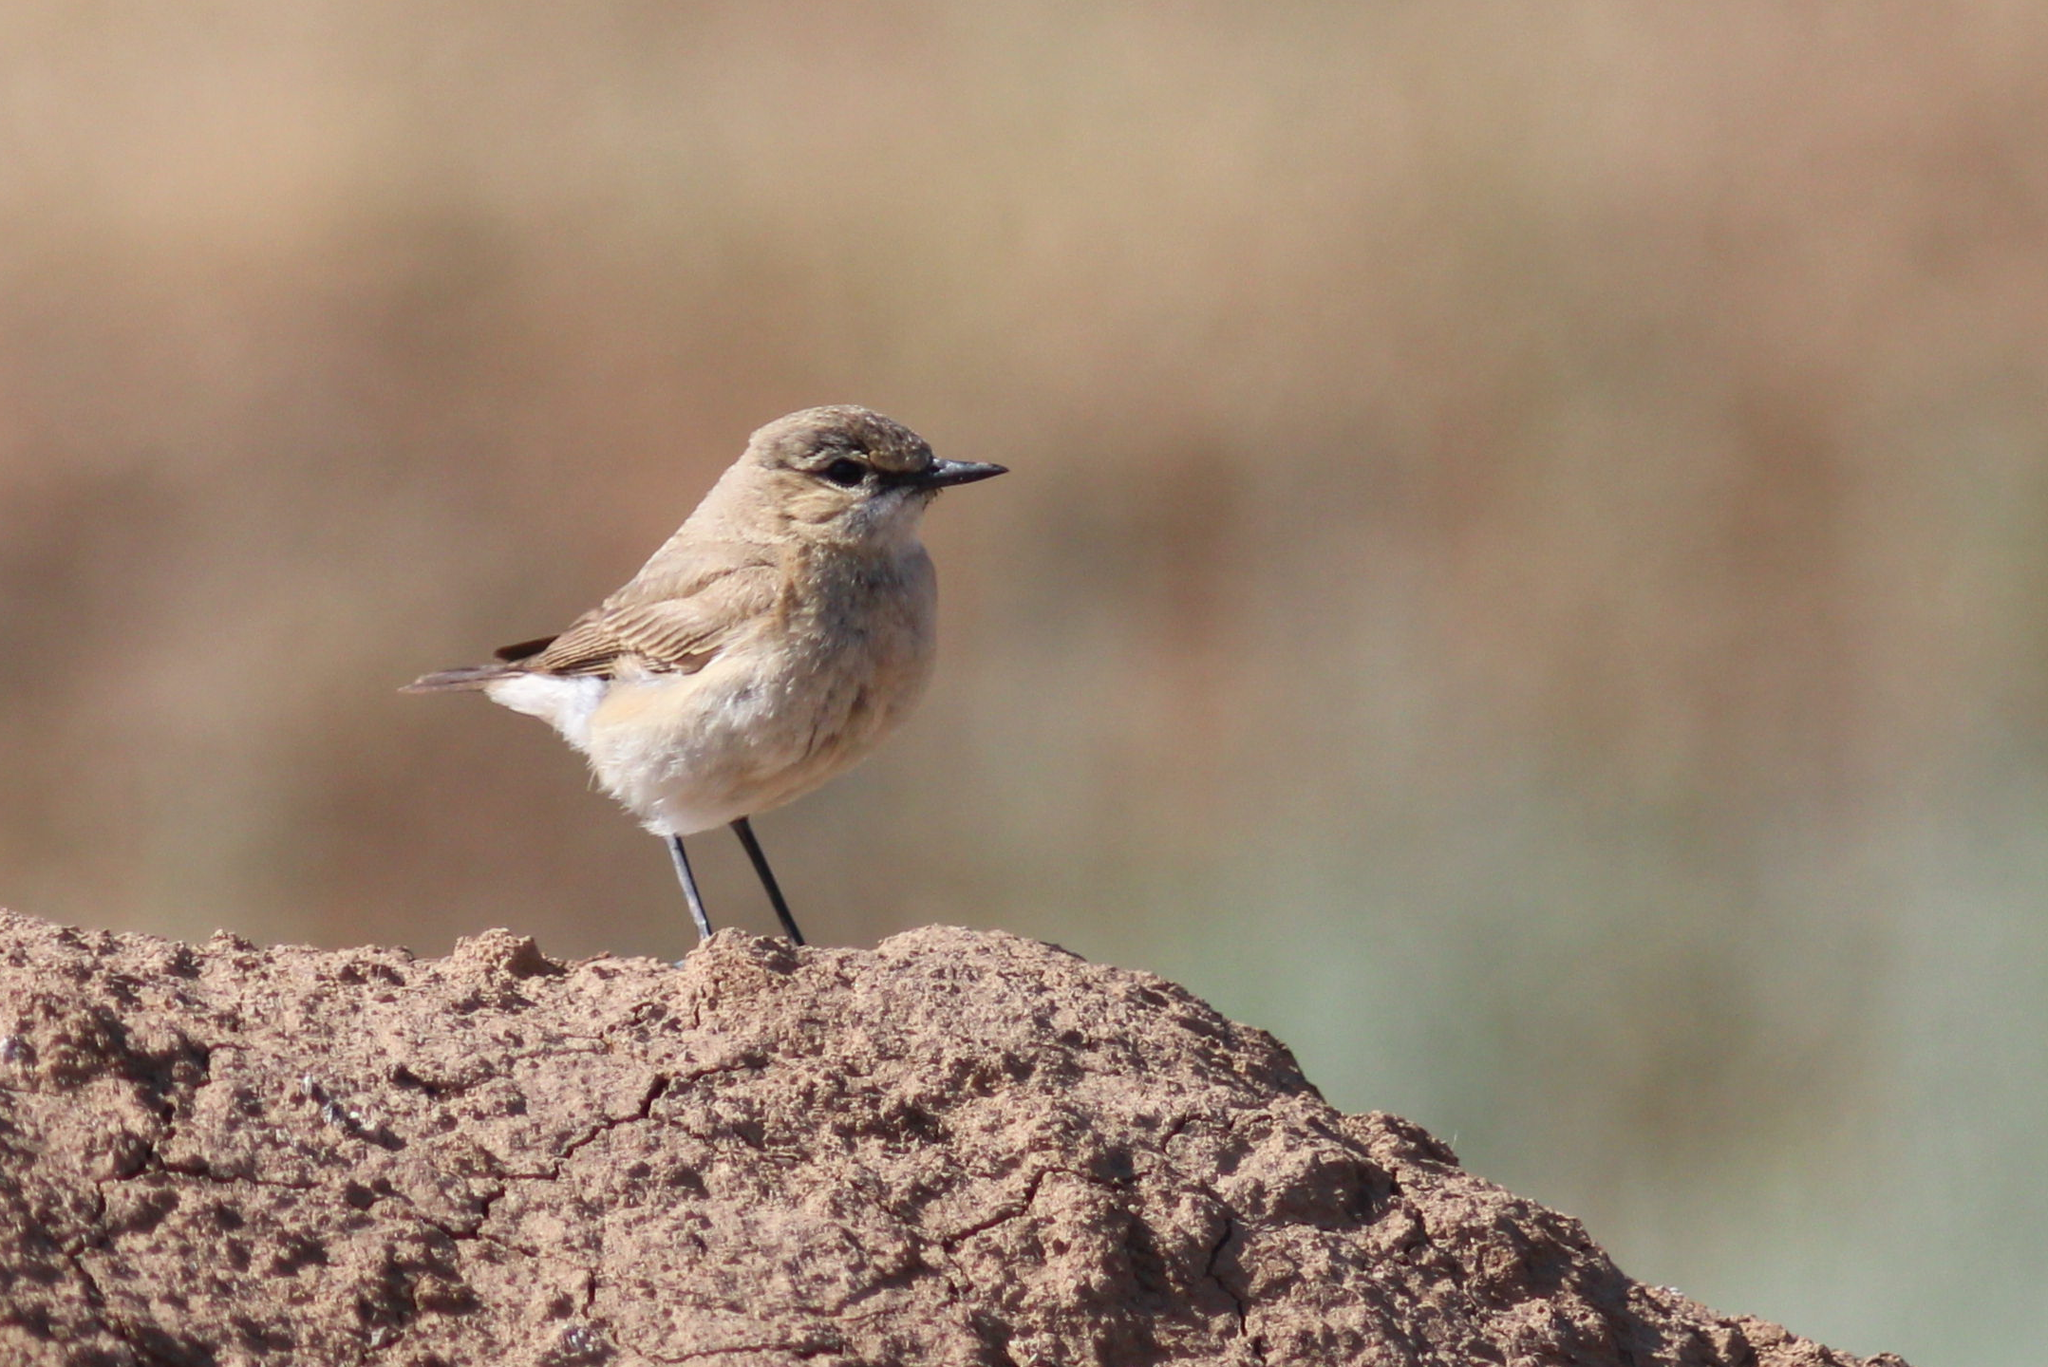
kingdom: Animalia
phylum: Chordata
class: Aves
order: Passeriformes
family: Muscicapidae
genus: Oenanthe
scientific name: Oenanthe isabellina
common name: Isabelline wheatear
